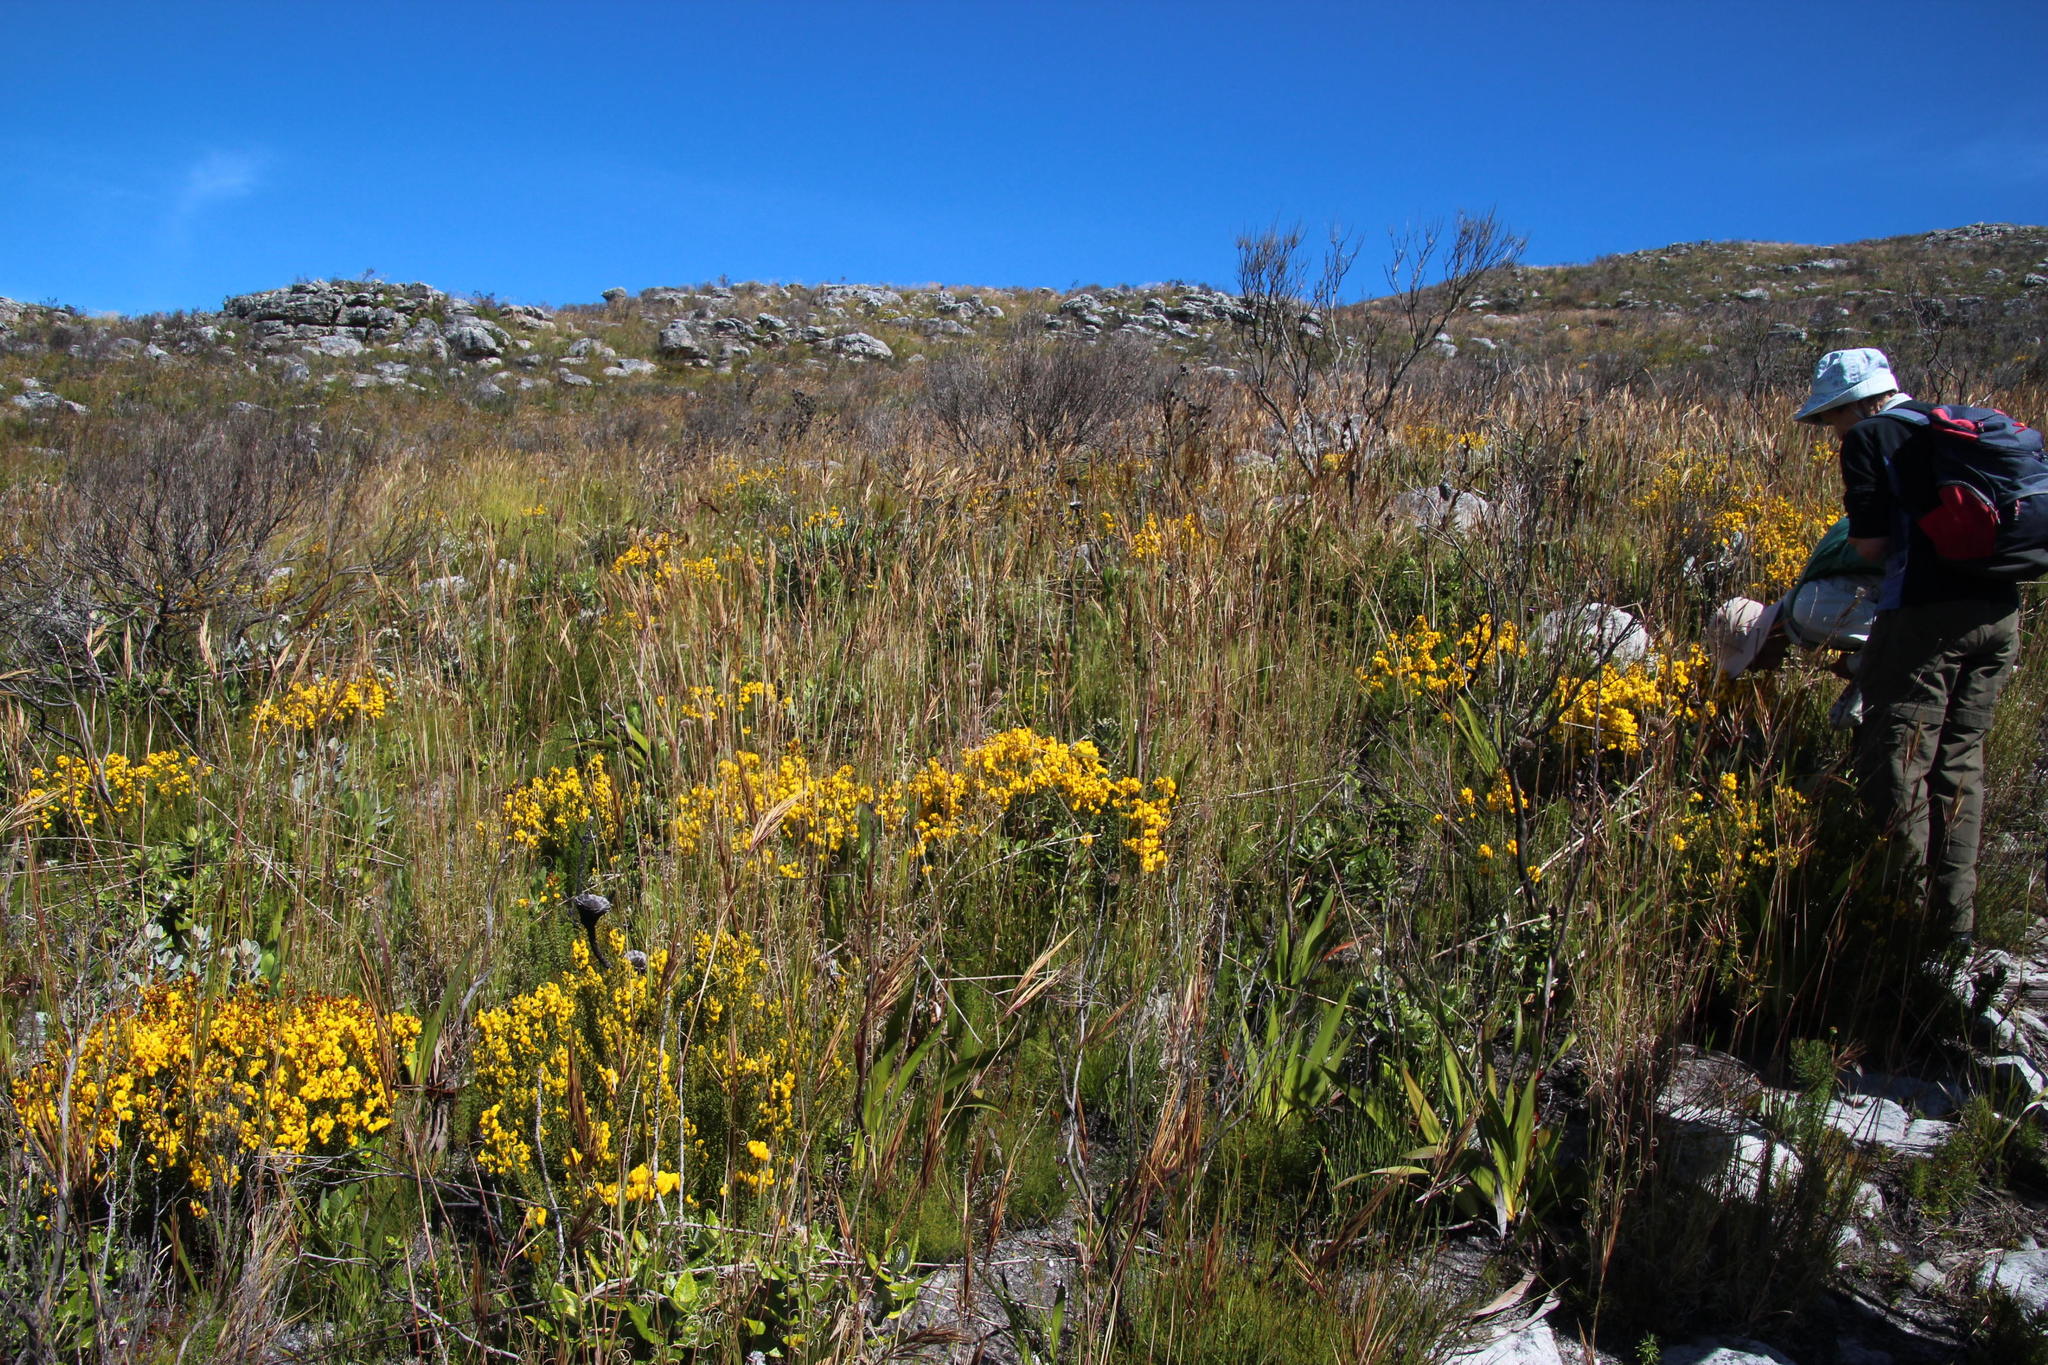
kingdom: Plantae
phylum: Tracheophyta
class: Magnoliopsida
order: Fabales
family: Fabaceae
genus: Cyclopia
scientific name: Cyclopia genistoides
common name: Honeybush tea
